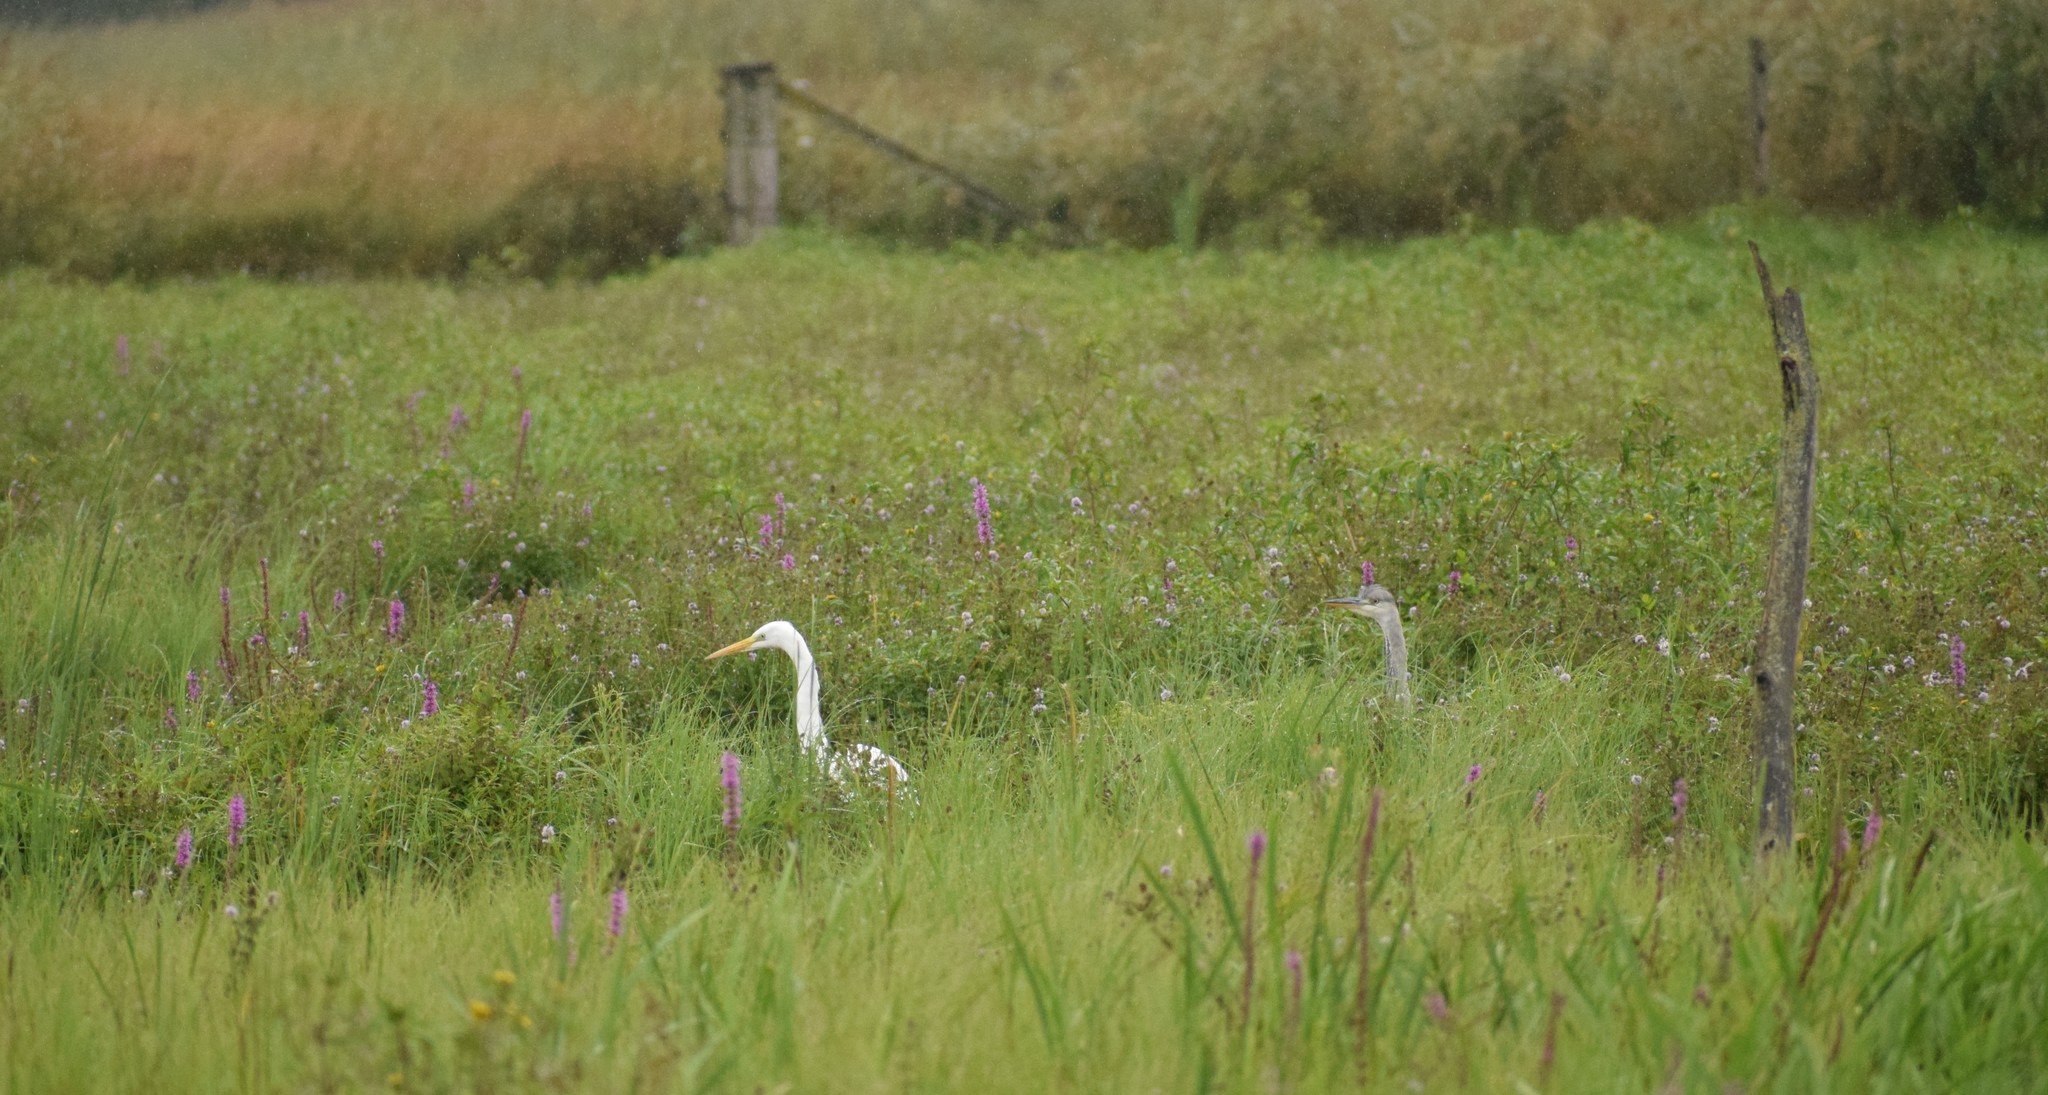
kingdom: Animalia
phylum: Chordata
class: Aves
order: Pelecaniformes
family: Ardeidae
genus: Ardea
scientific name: Ardea alba
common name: Great egret
